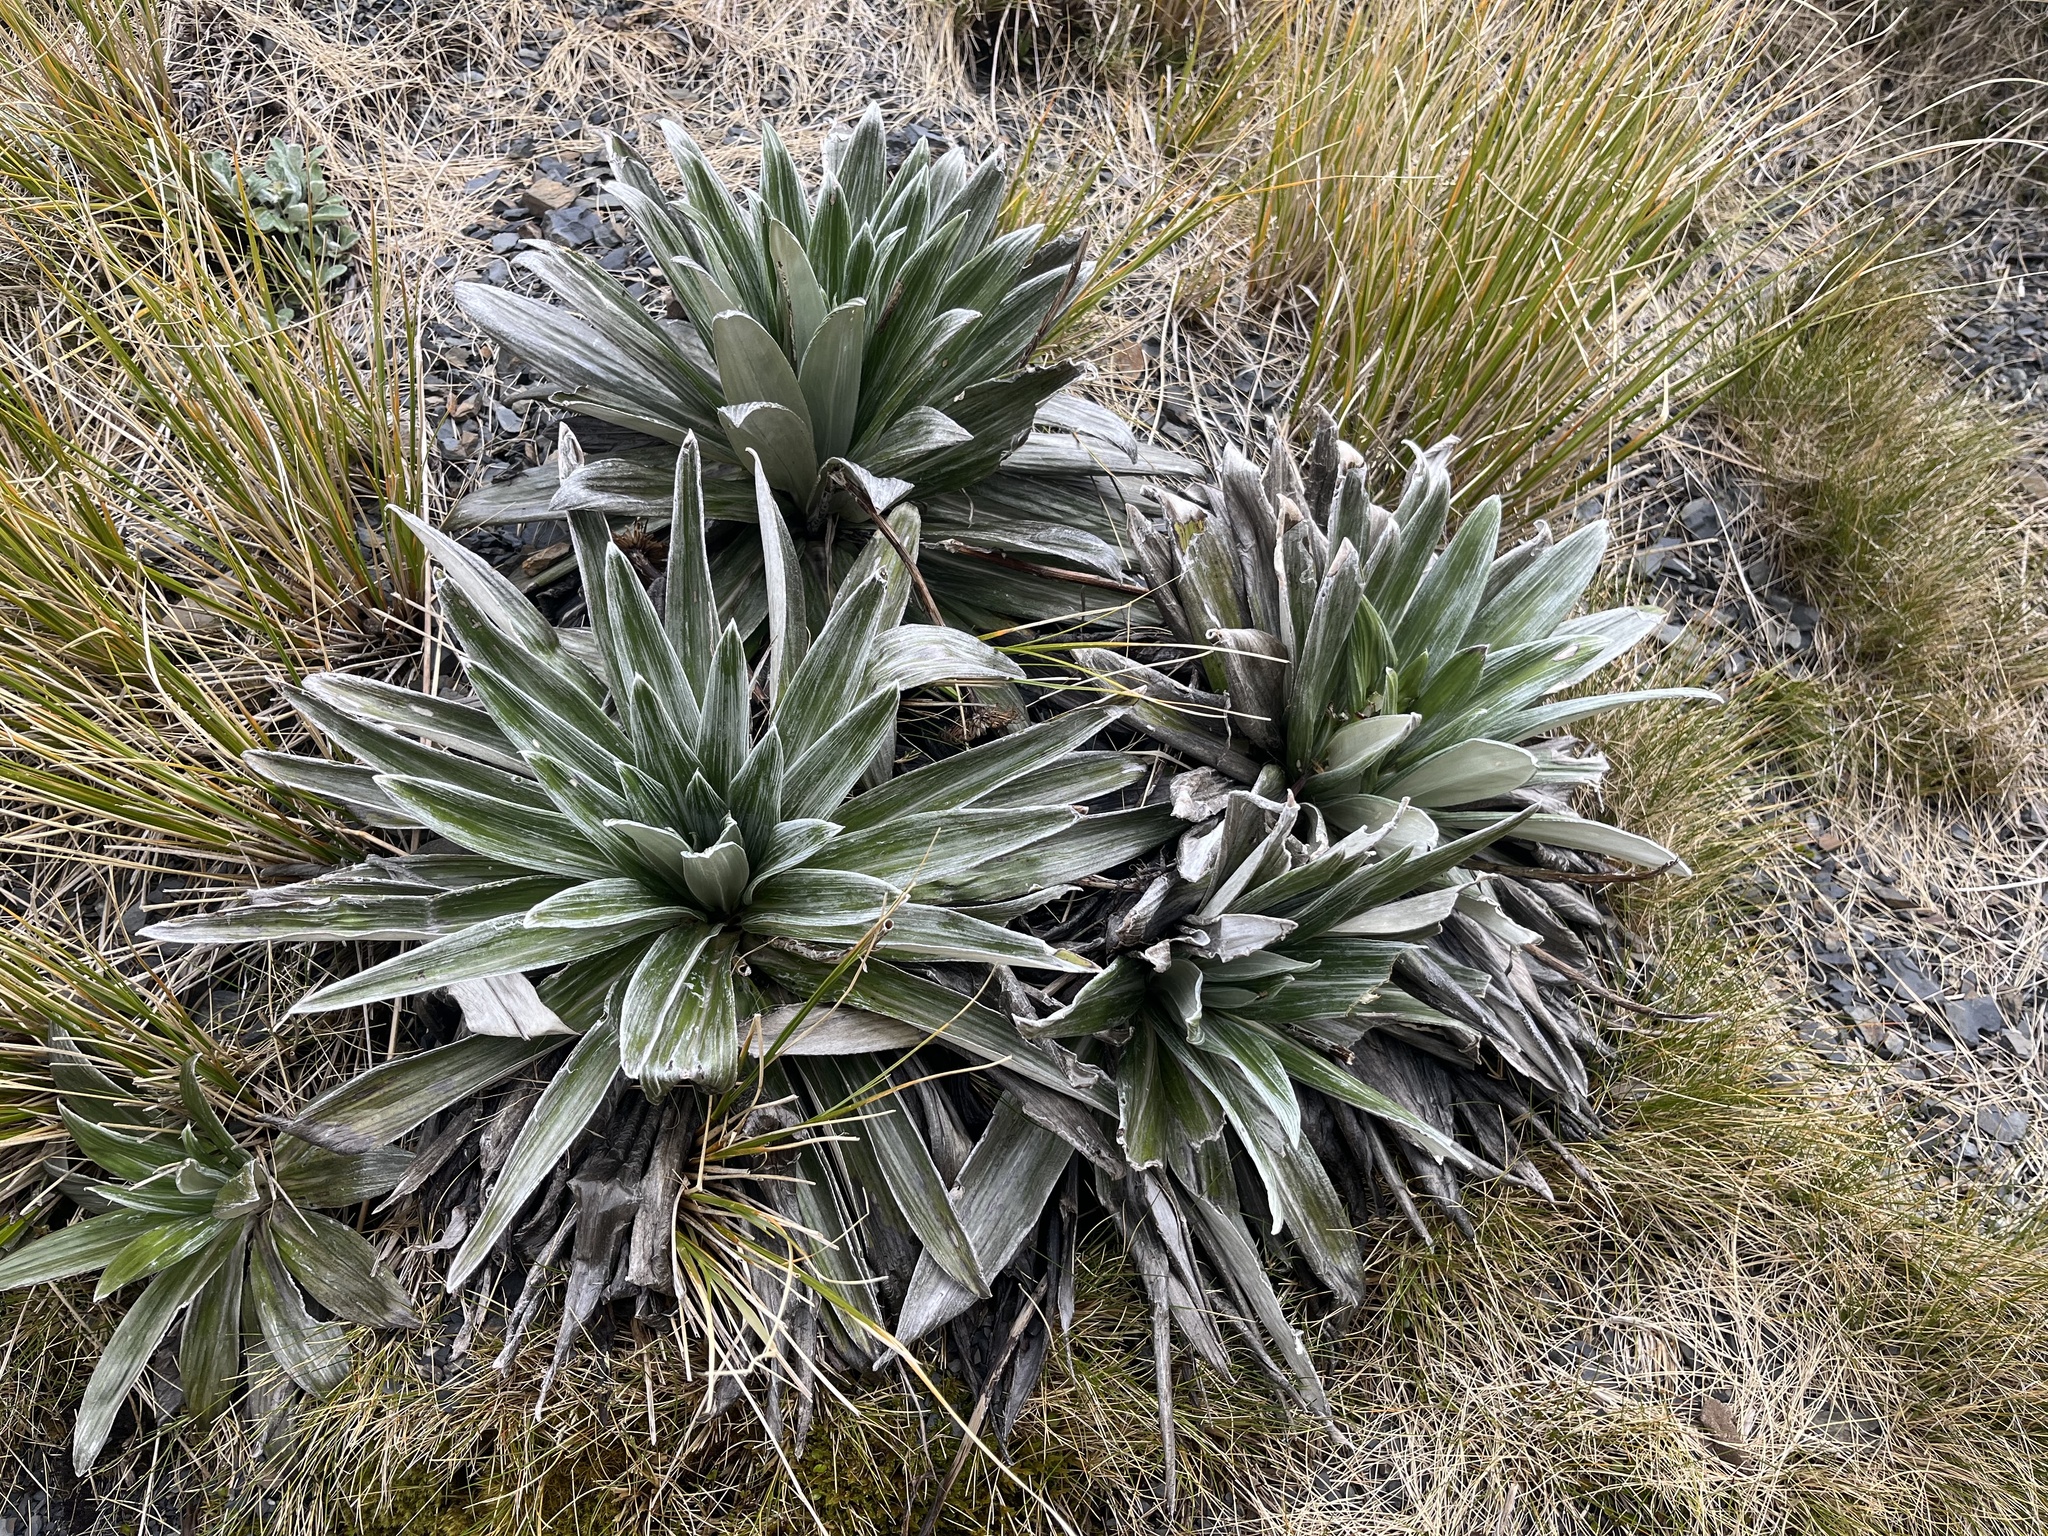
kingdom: Plantae
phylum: Tracheophyta
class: Magnoliopsida
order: Asterales
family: Asteraceae
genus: Celmisia
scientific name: Celmisia semicordata
